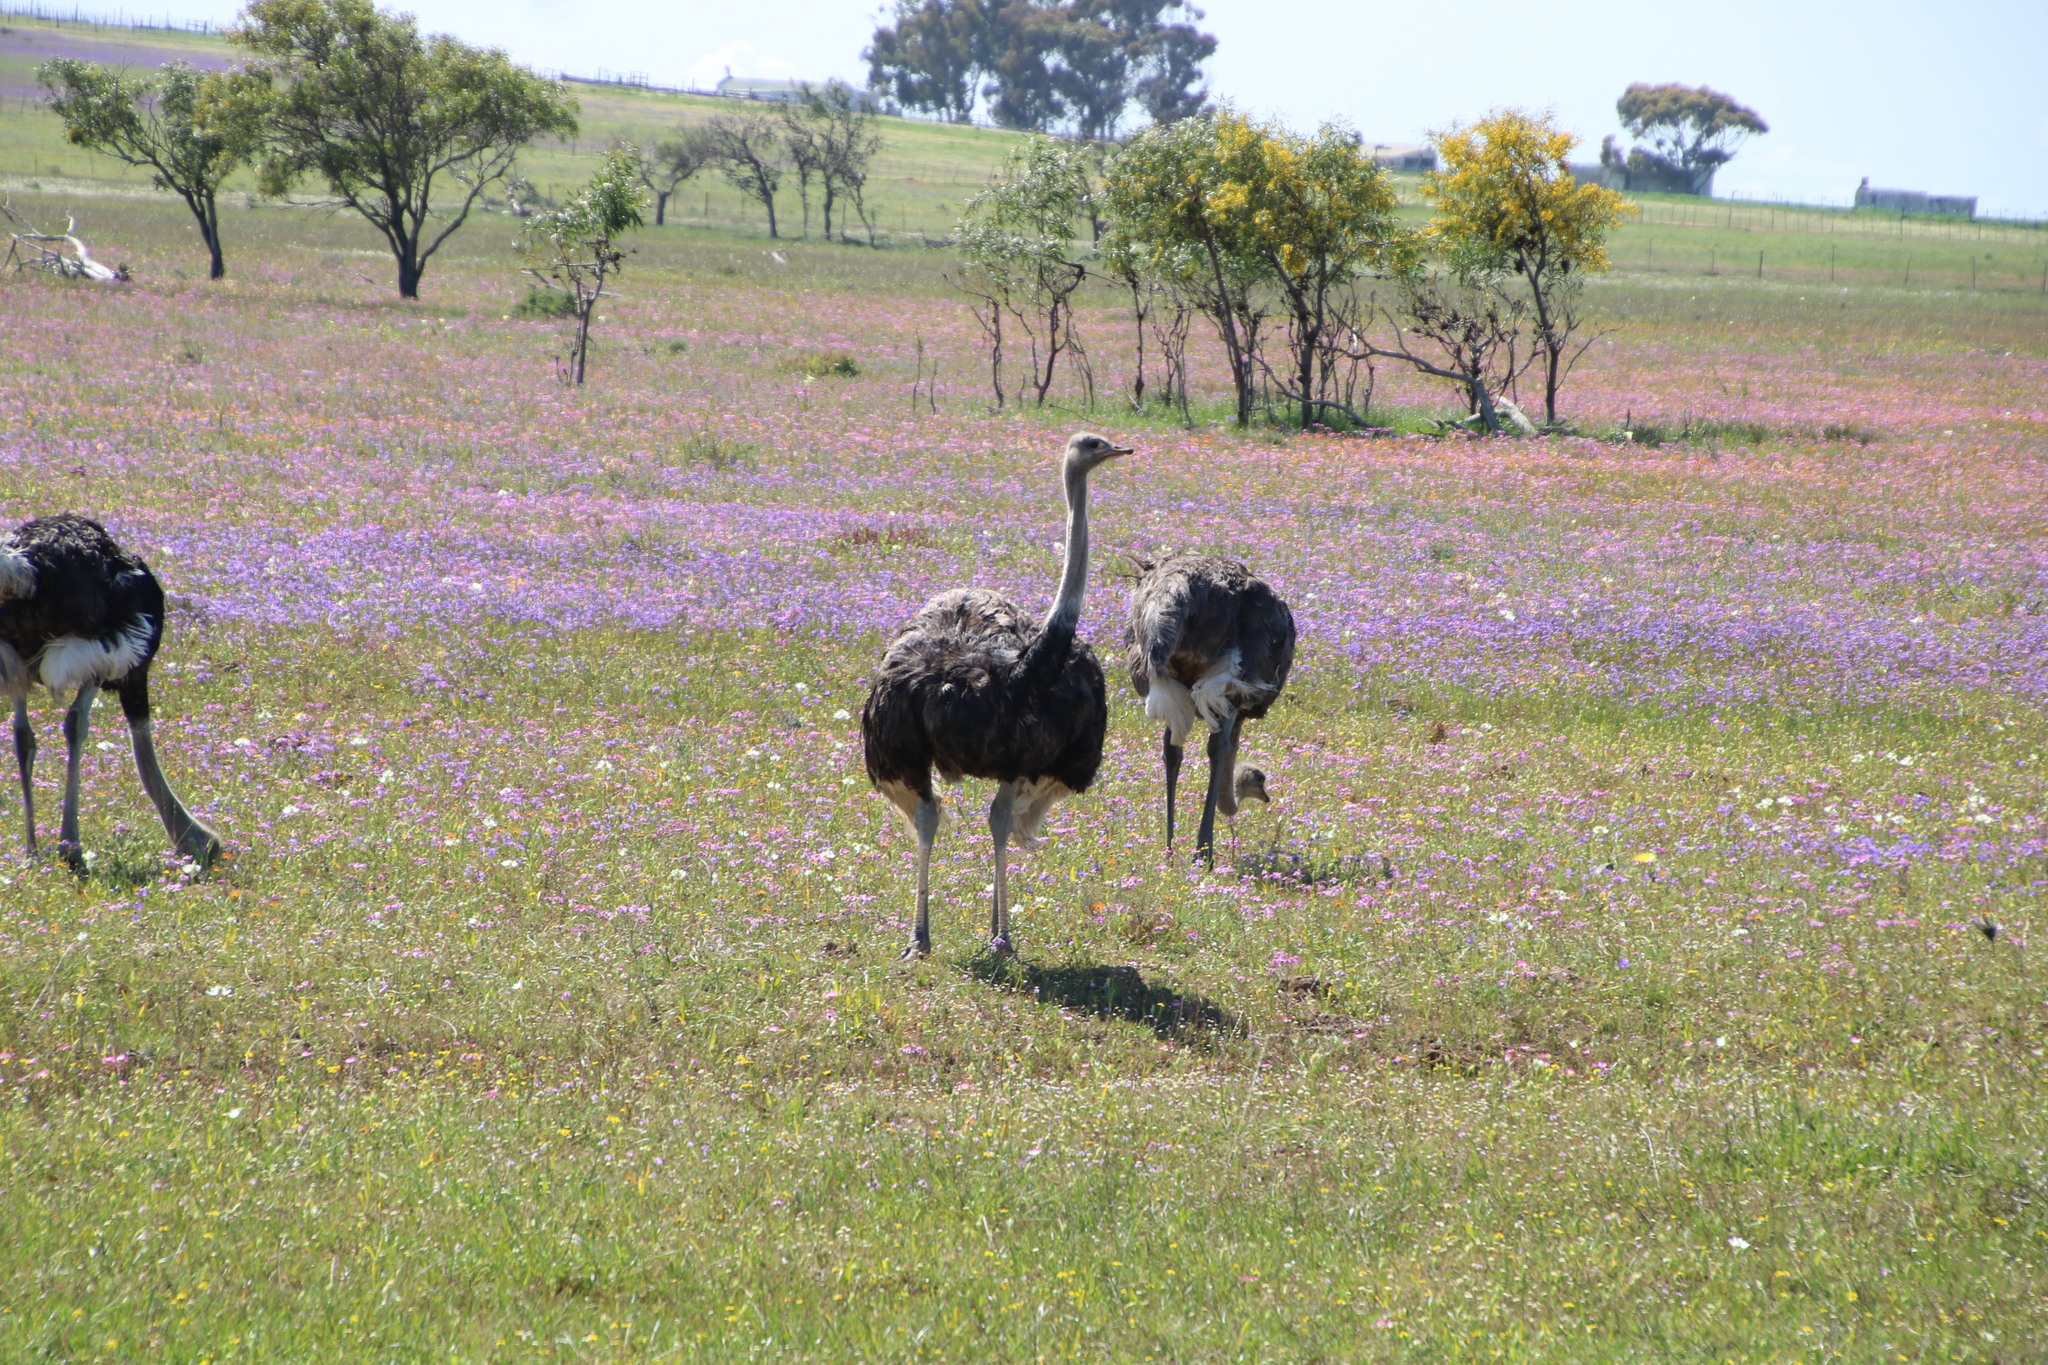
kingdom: Animalia
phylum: Chordata
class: Aves
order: Struthioniformes
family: Struthionidae
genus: Struthio
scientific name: Struthio camelus
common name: Common ostrich
